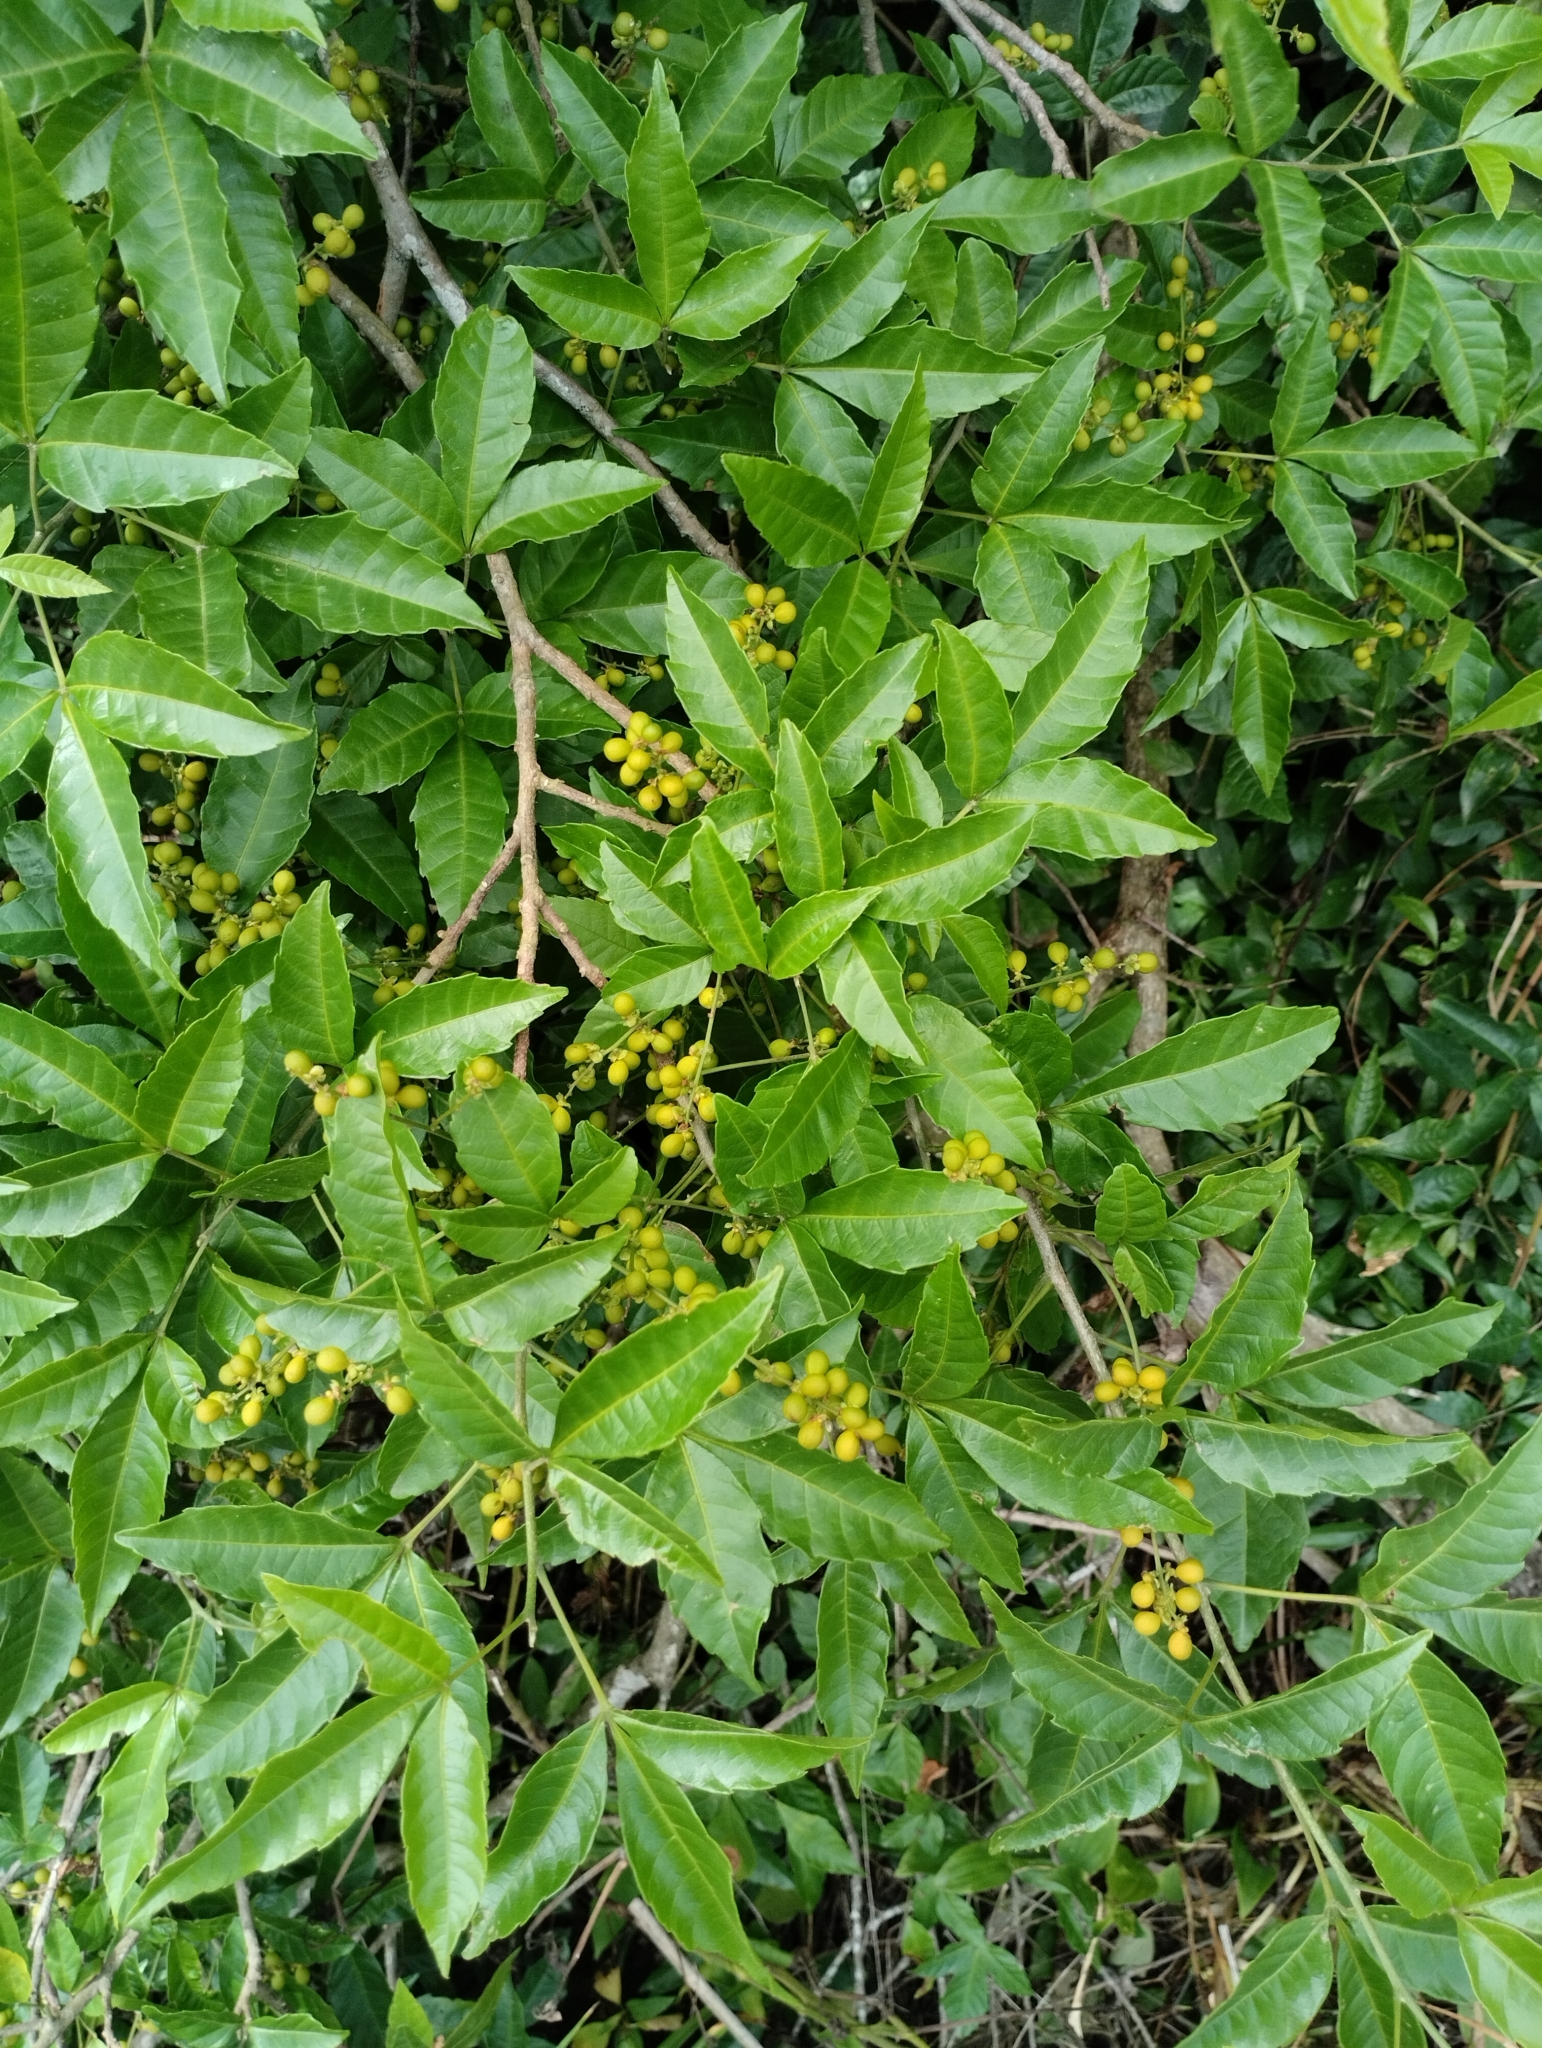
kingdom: Plantae
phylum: Tracheophyta
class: Magnoliopsida
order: Sapindales
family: Sapindaceae
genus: Allophylus
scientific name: Allophylus edulis
